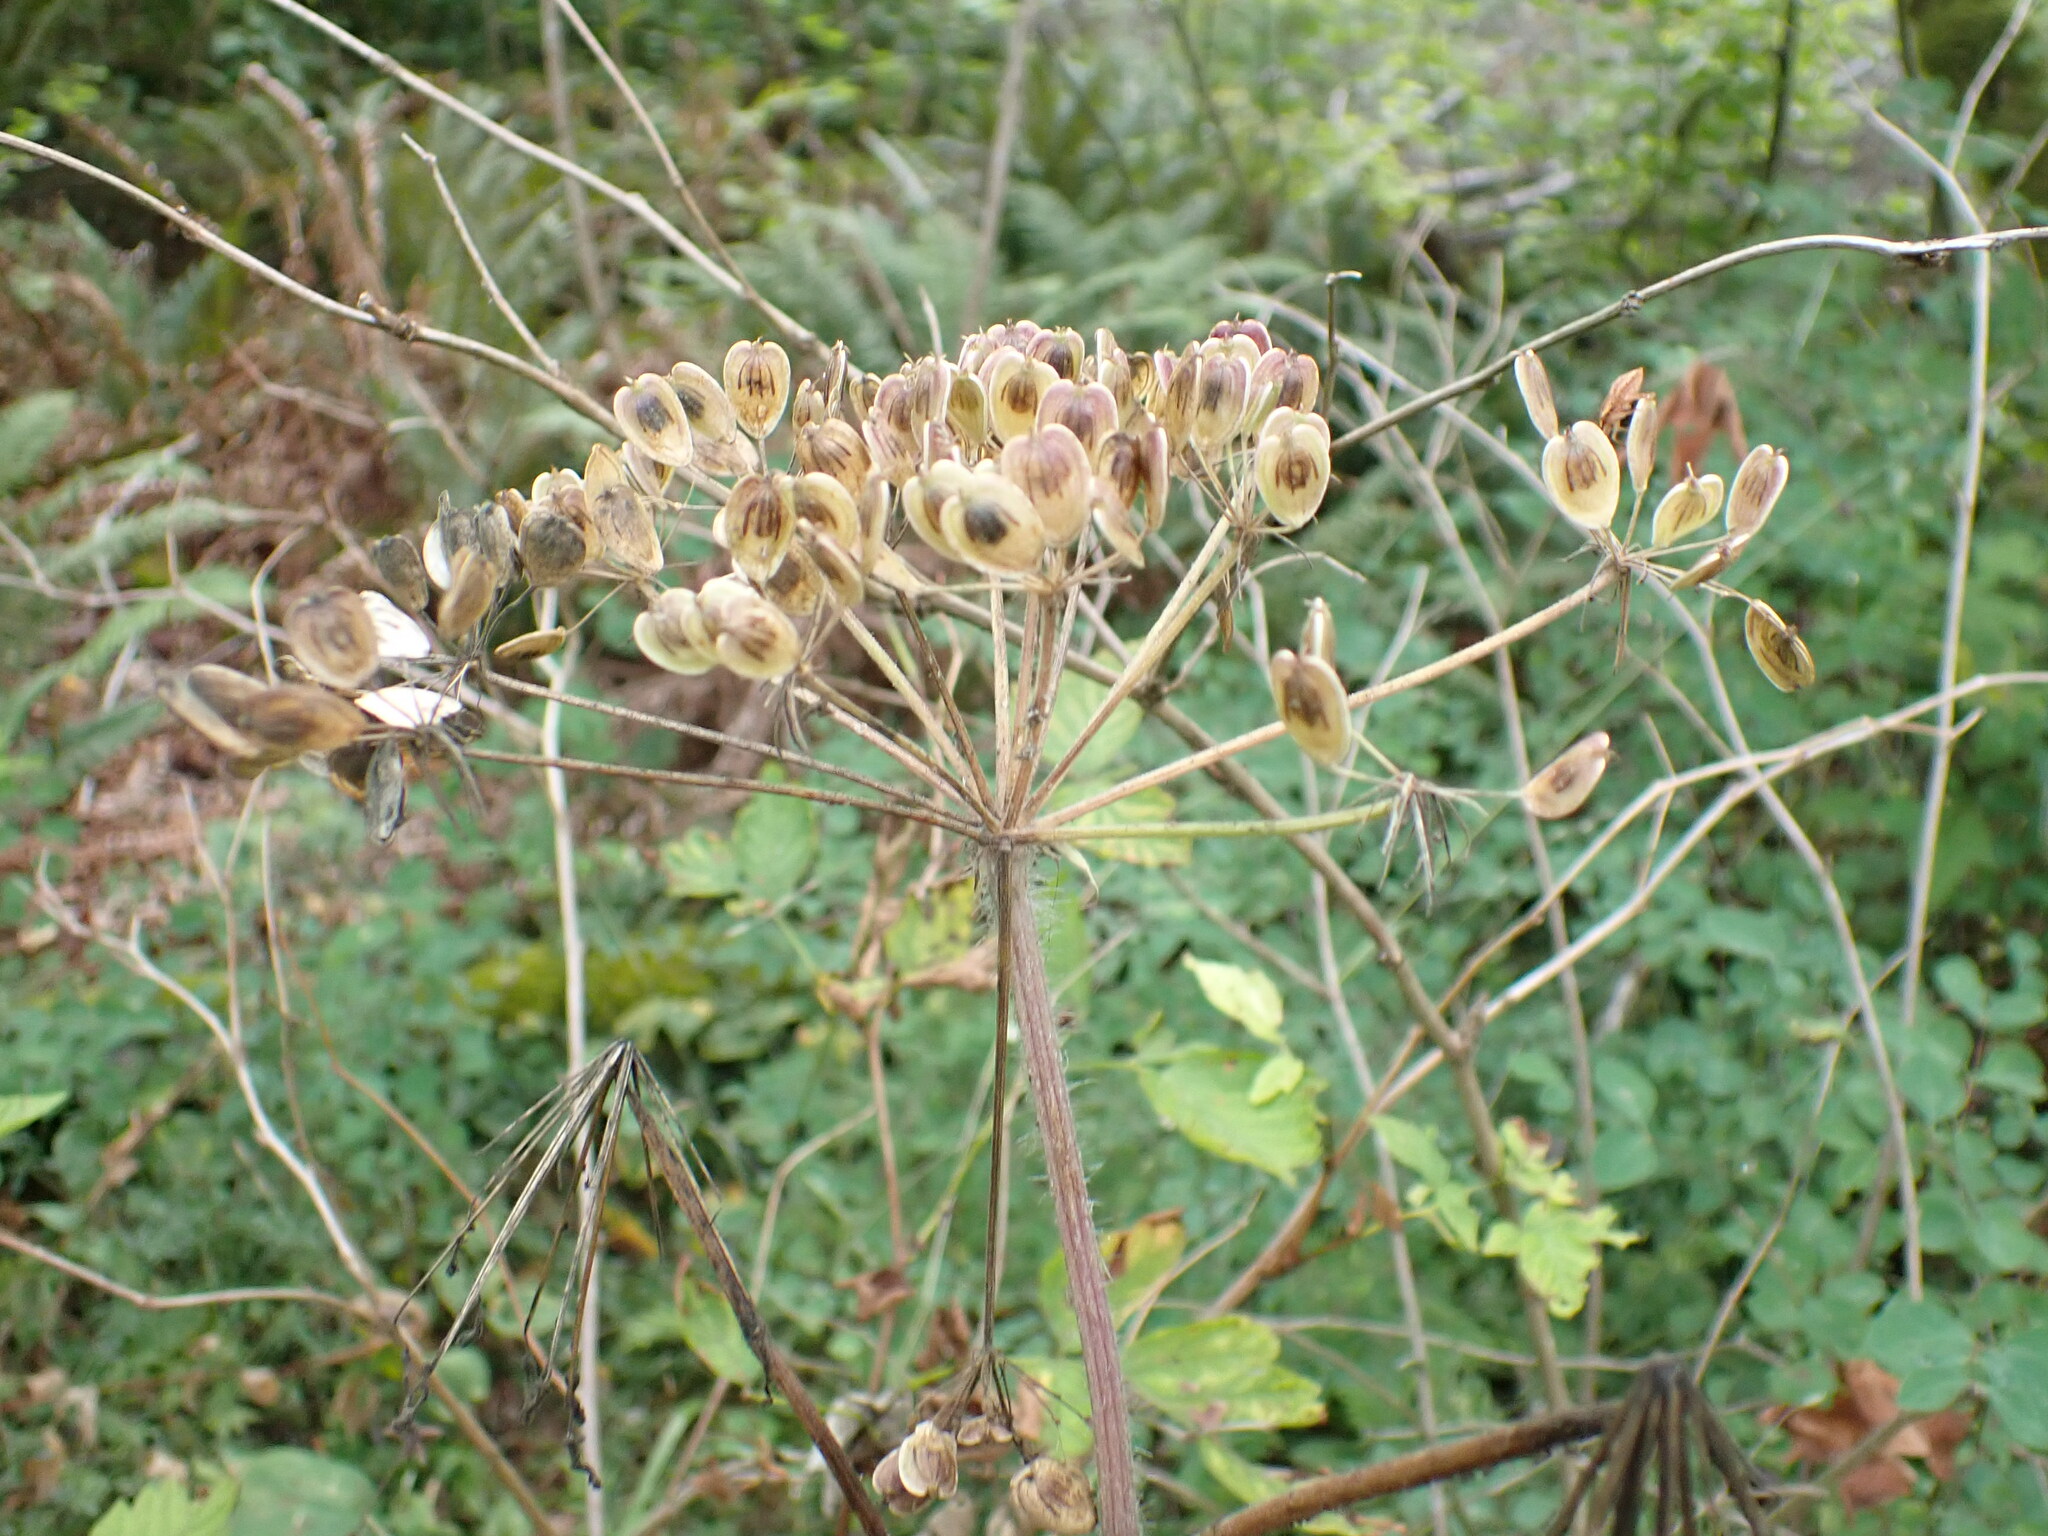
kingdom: Plantae
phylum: Tracheophyta
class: Magnoliopsida
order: Apiales
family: Apiaceae
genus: Heracleum
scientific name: Heracleum maximum
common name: American cow parsnip
